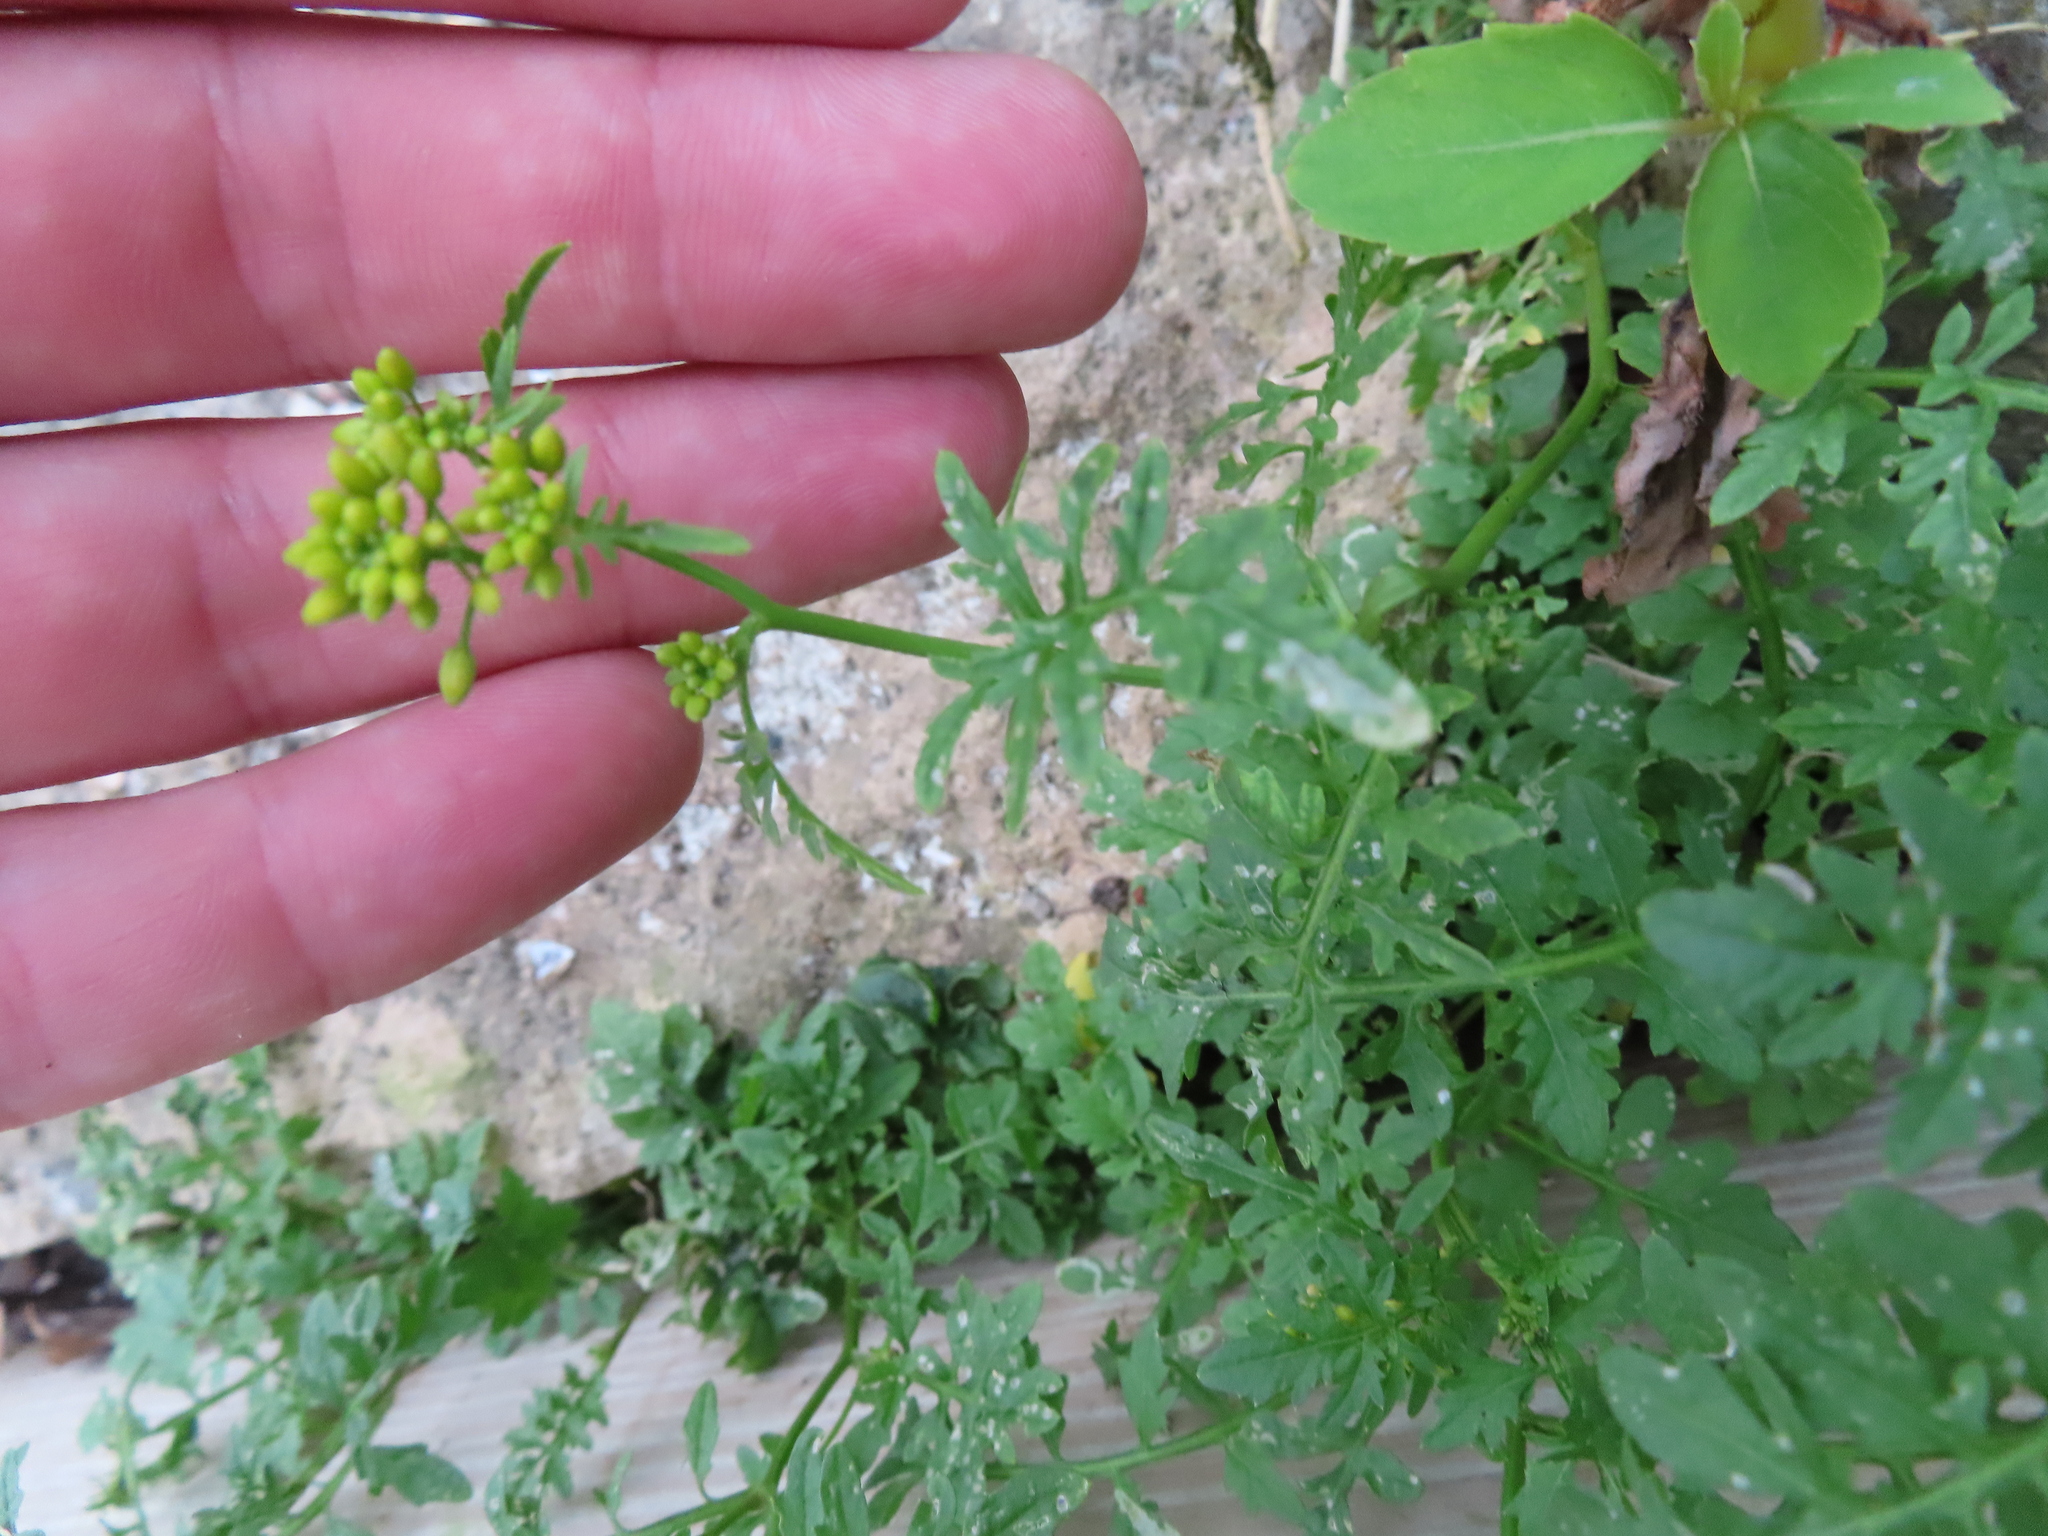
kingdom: Plantae
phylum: Tracheophyta
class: Magnoliopsida
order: Brassicales
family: Brassicaceae
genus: Rorippa
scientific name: Rorippa sylvestris
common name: Creeping yellowcress
